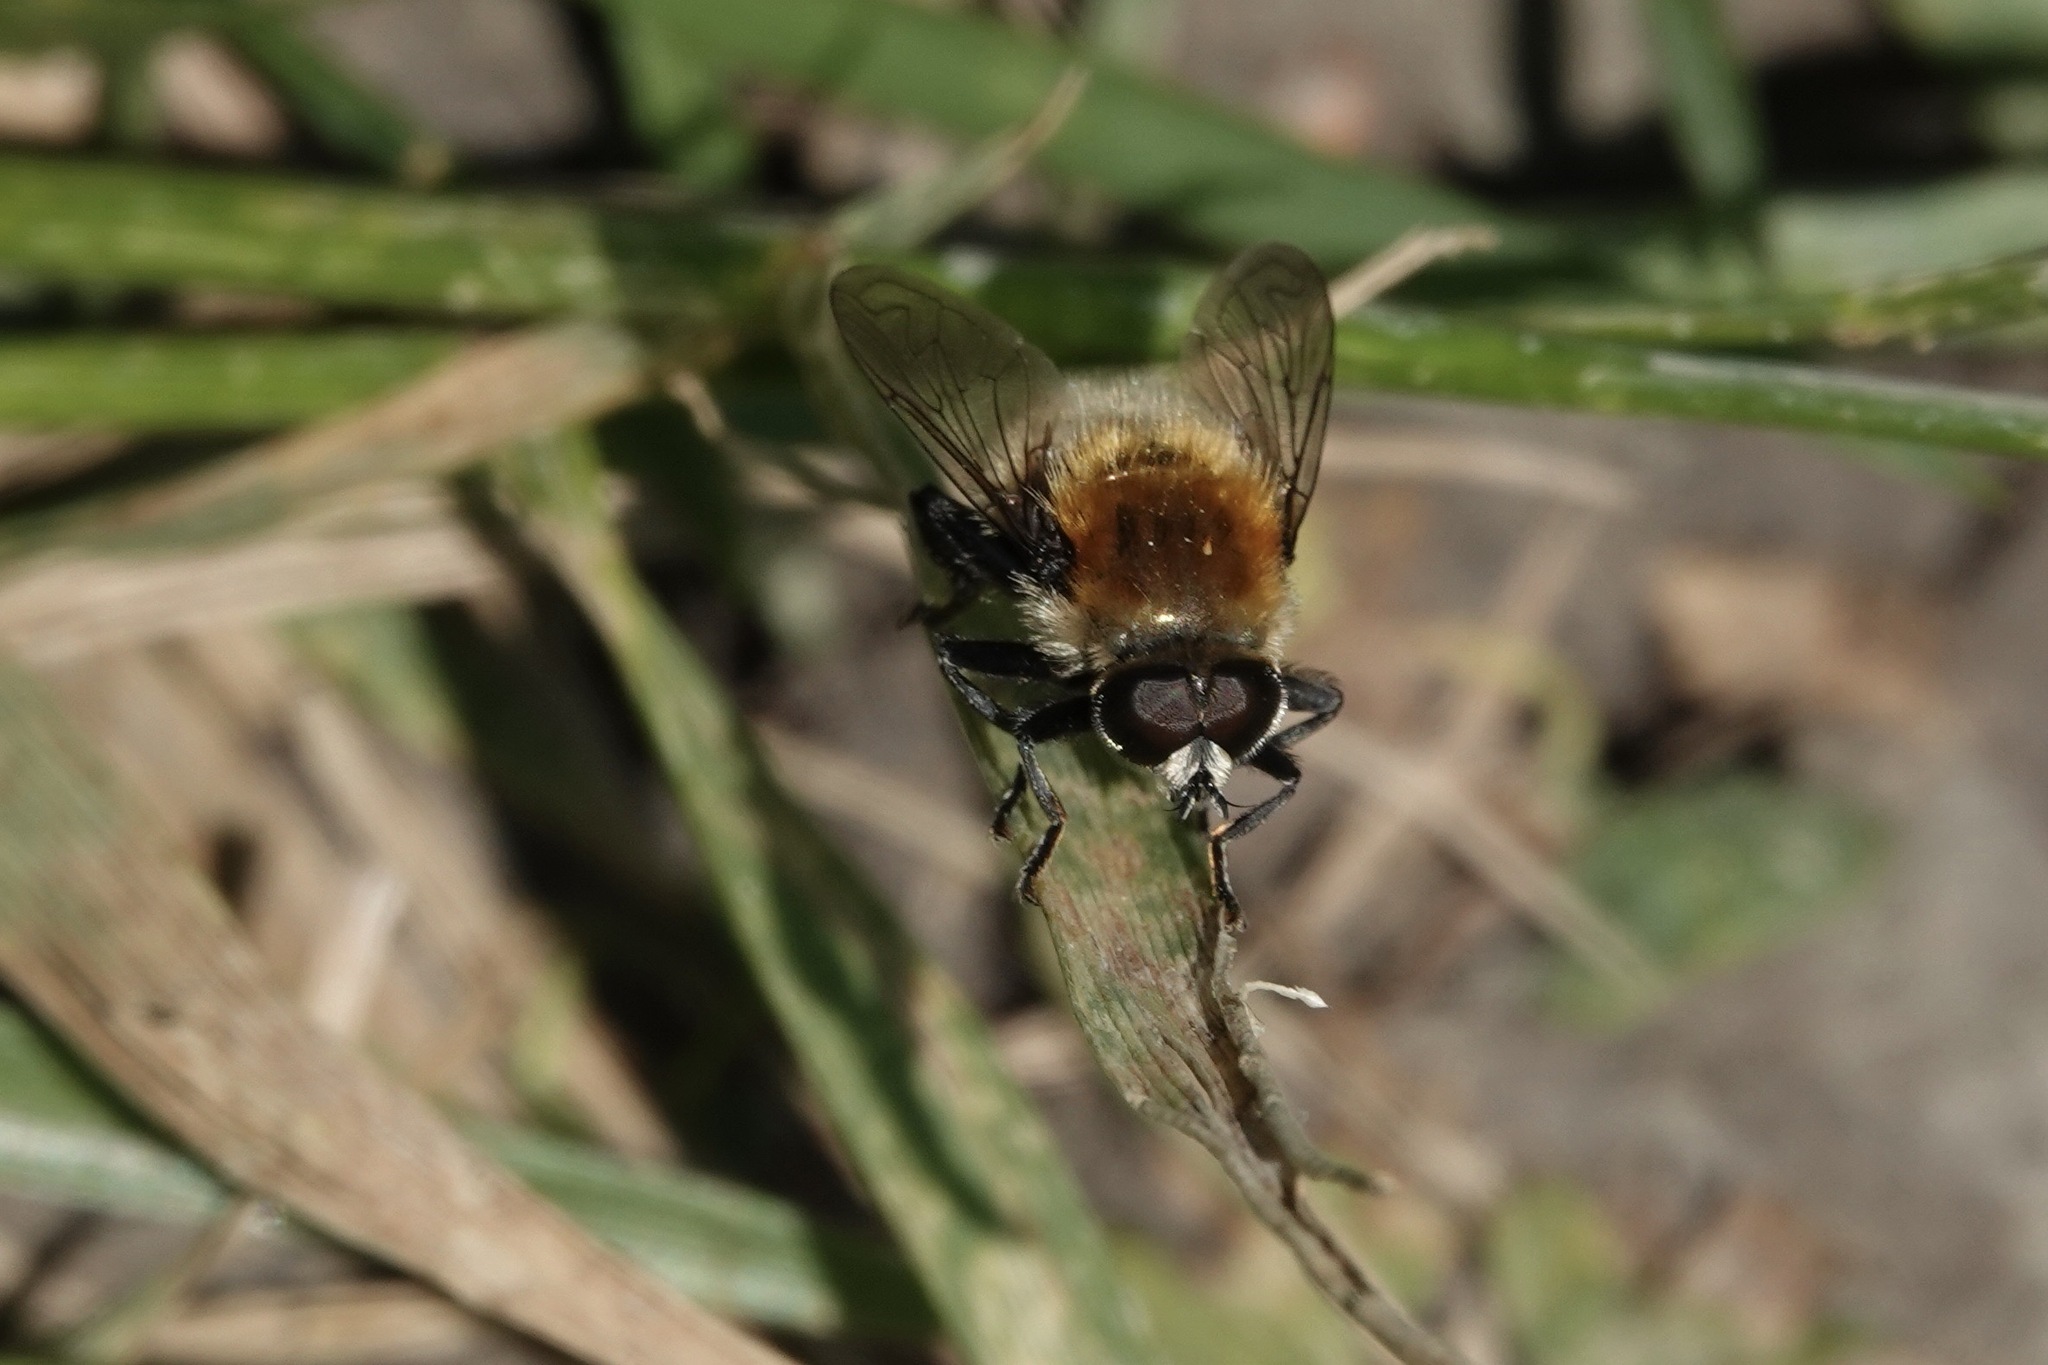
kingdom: Animalia
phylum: Arthropoda
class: Insecta
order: Diptera
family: Syrphidae
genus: Merodon
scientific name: Merodon equestris
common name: Greater bulb-fly
